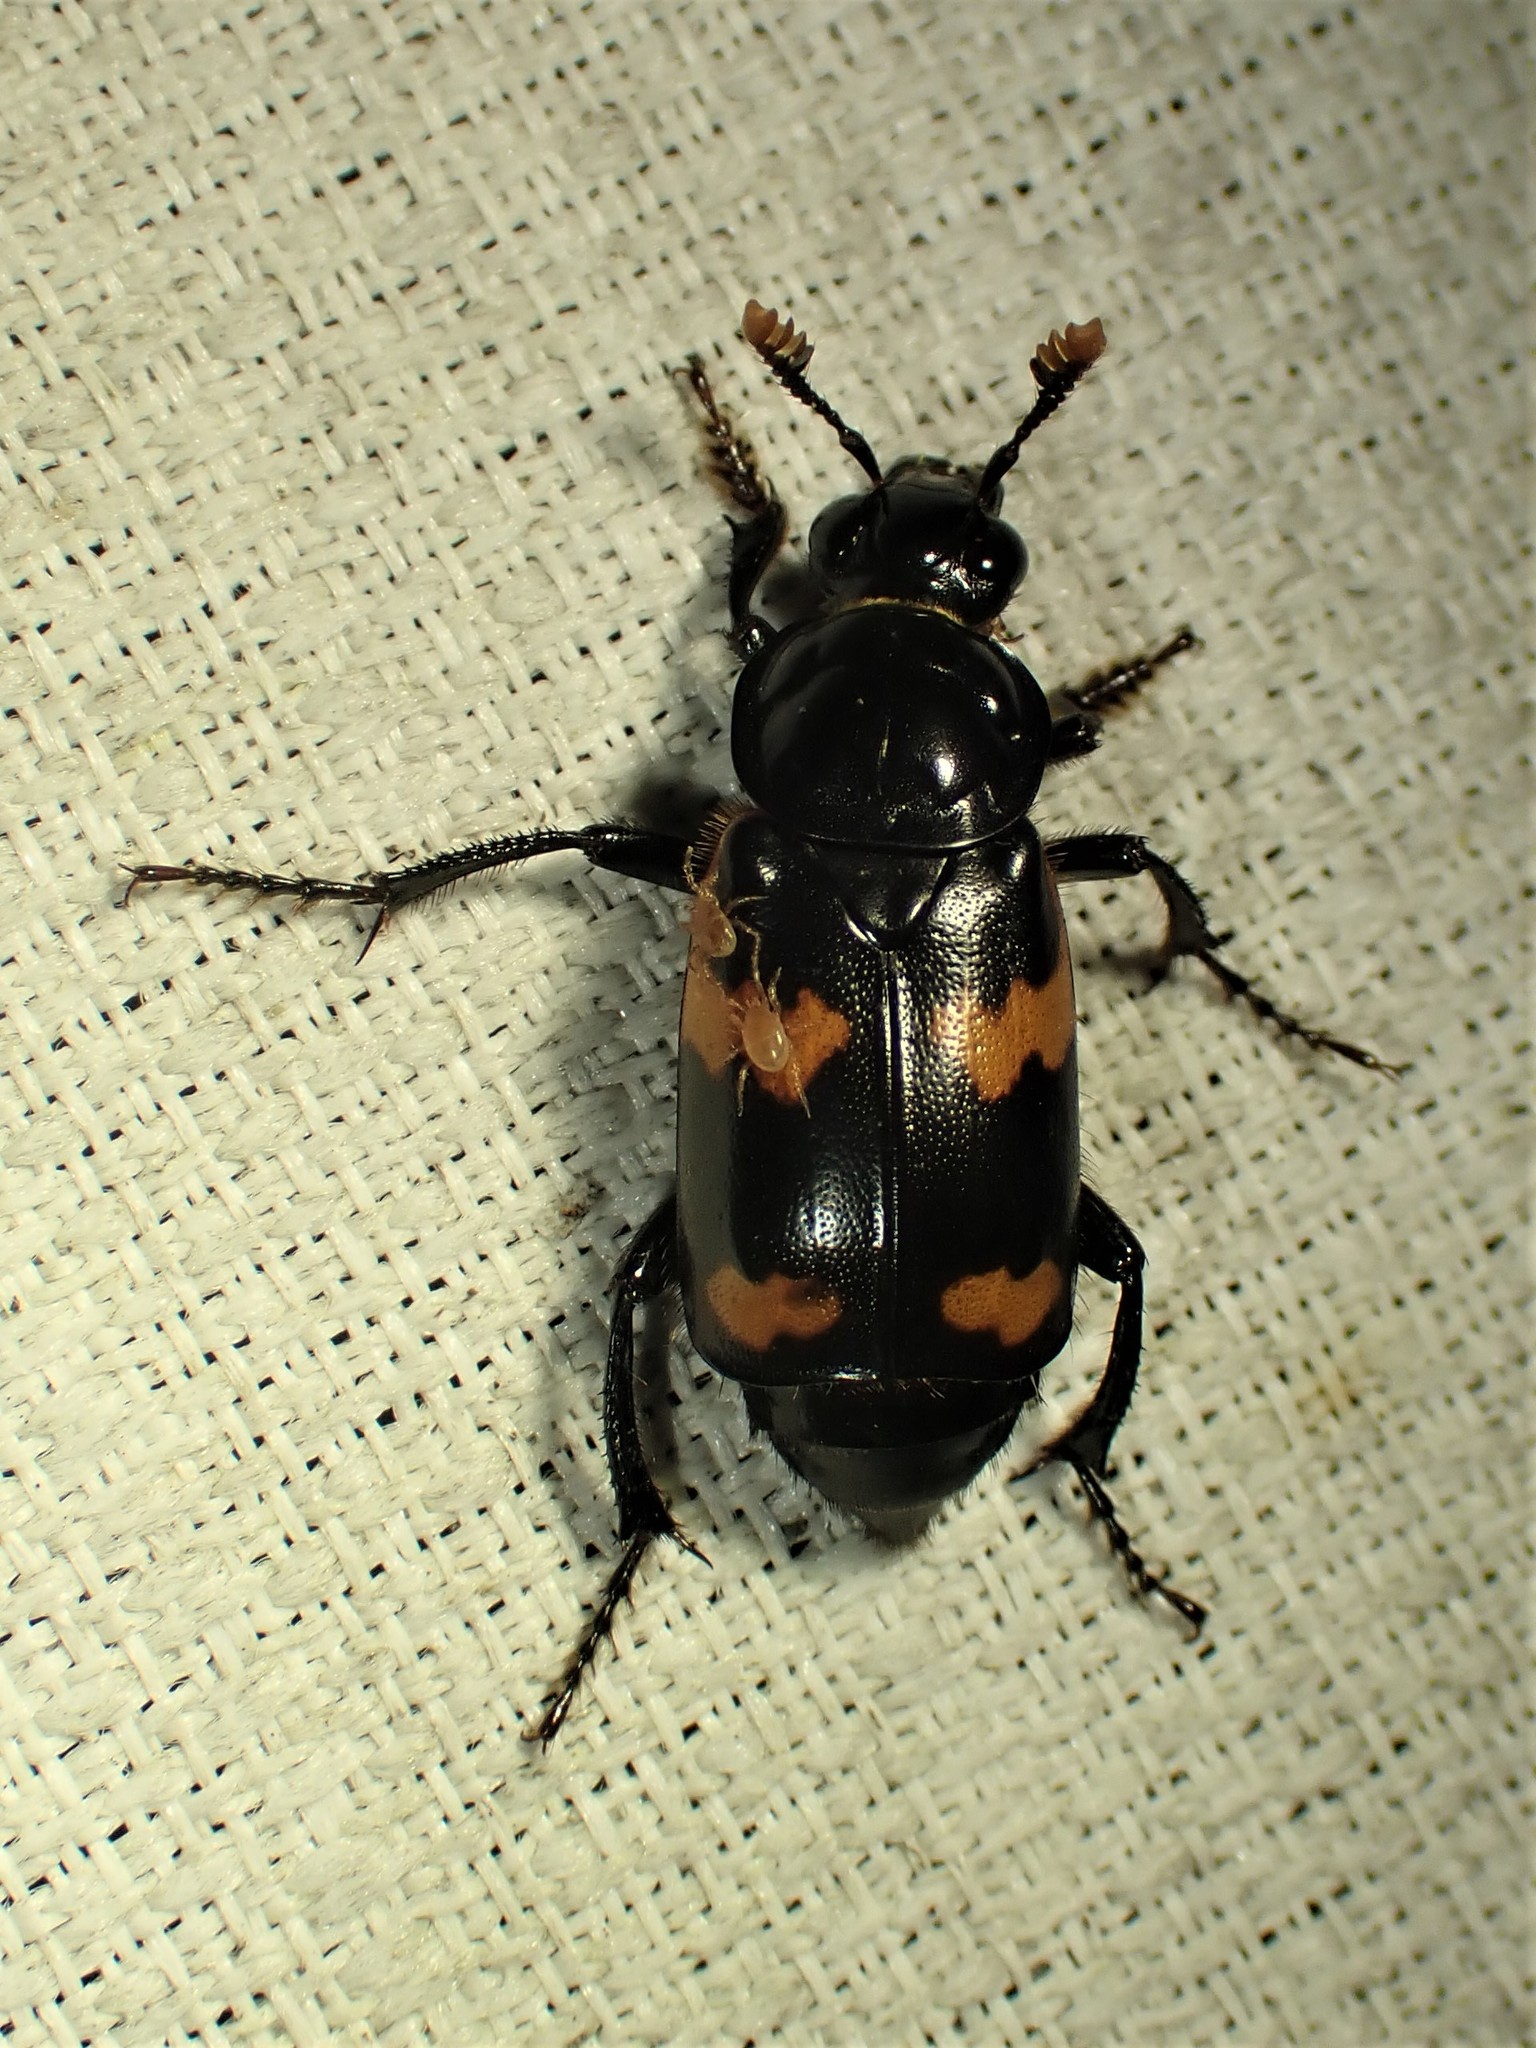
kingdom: Animalia
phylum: Arthropoda
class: Insecta
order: Coleoptera
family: Staphylinidae
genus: Nicrophorus
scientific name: Nicrophorus sayi
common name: Say's burying beetle
